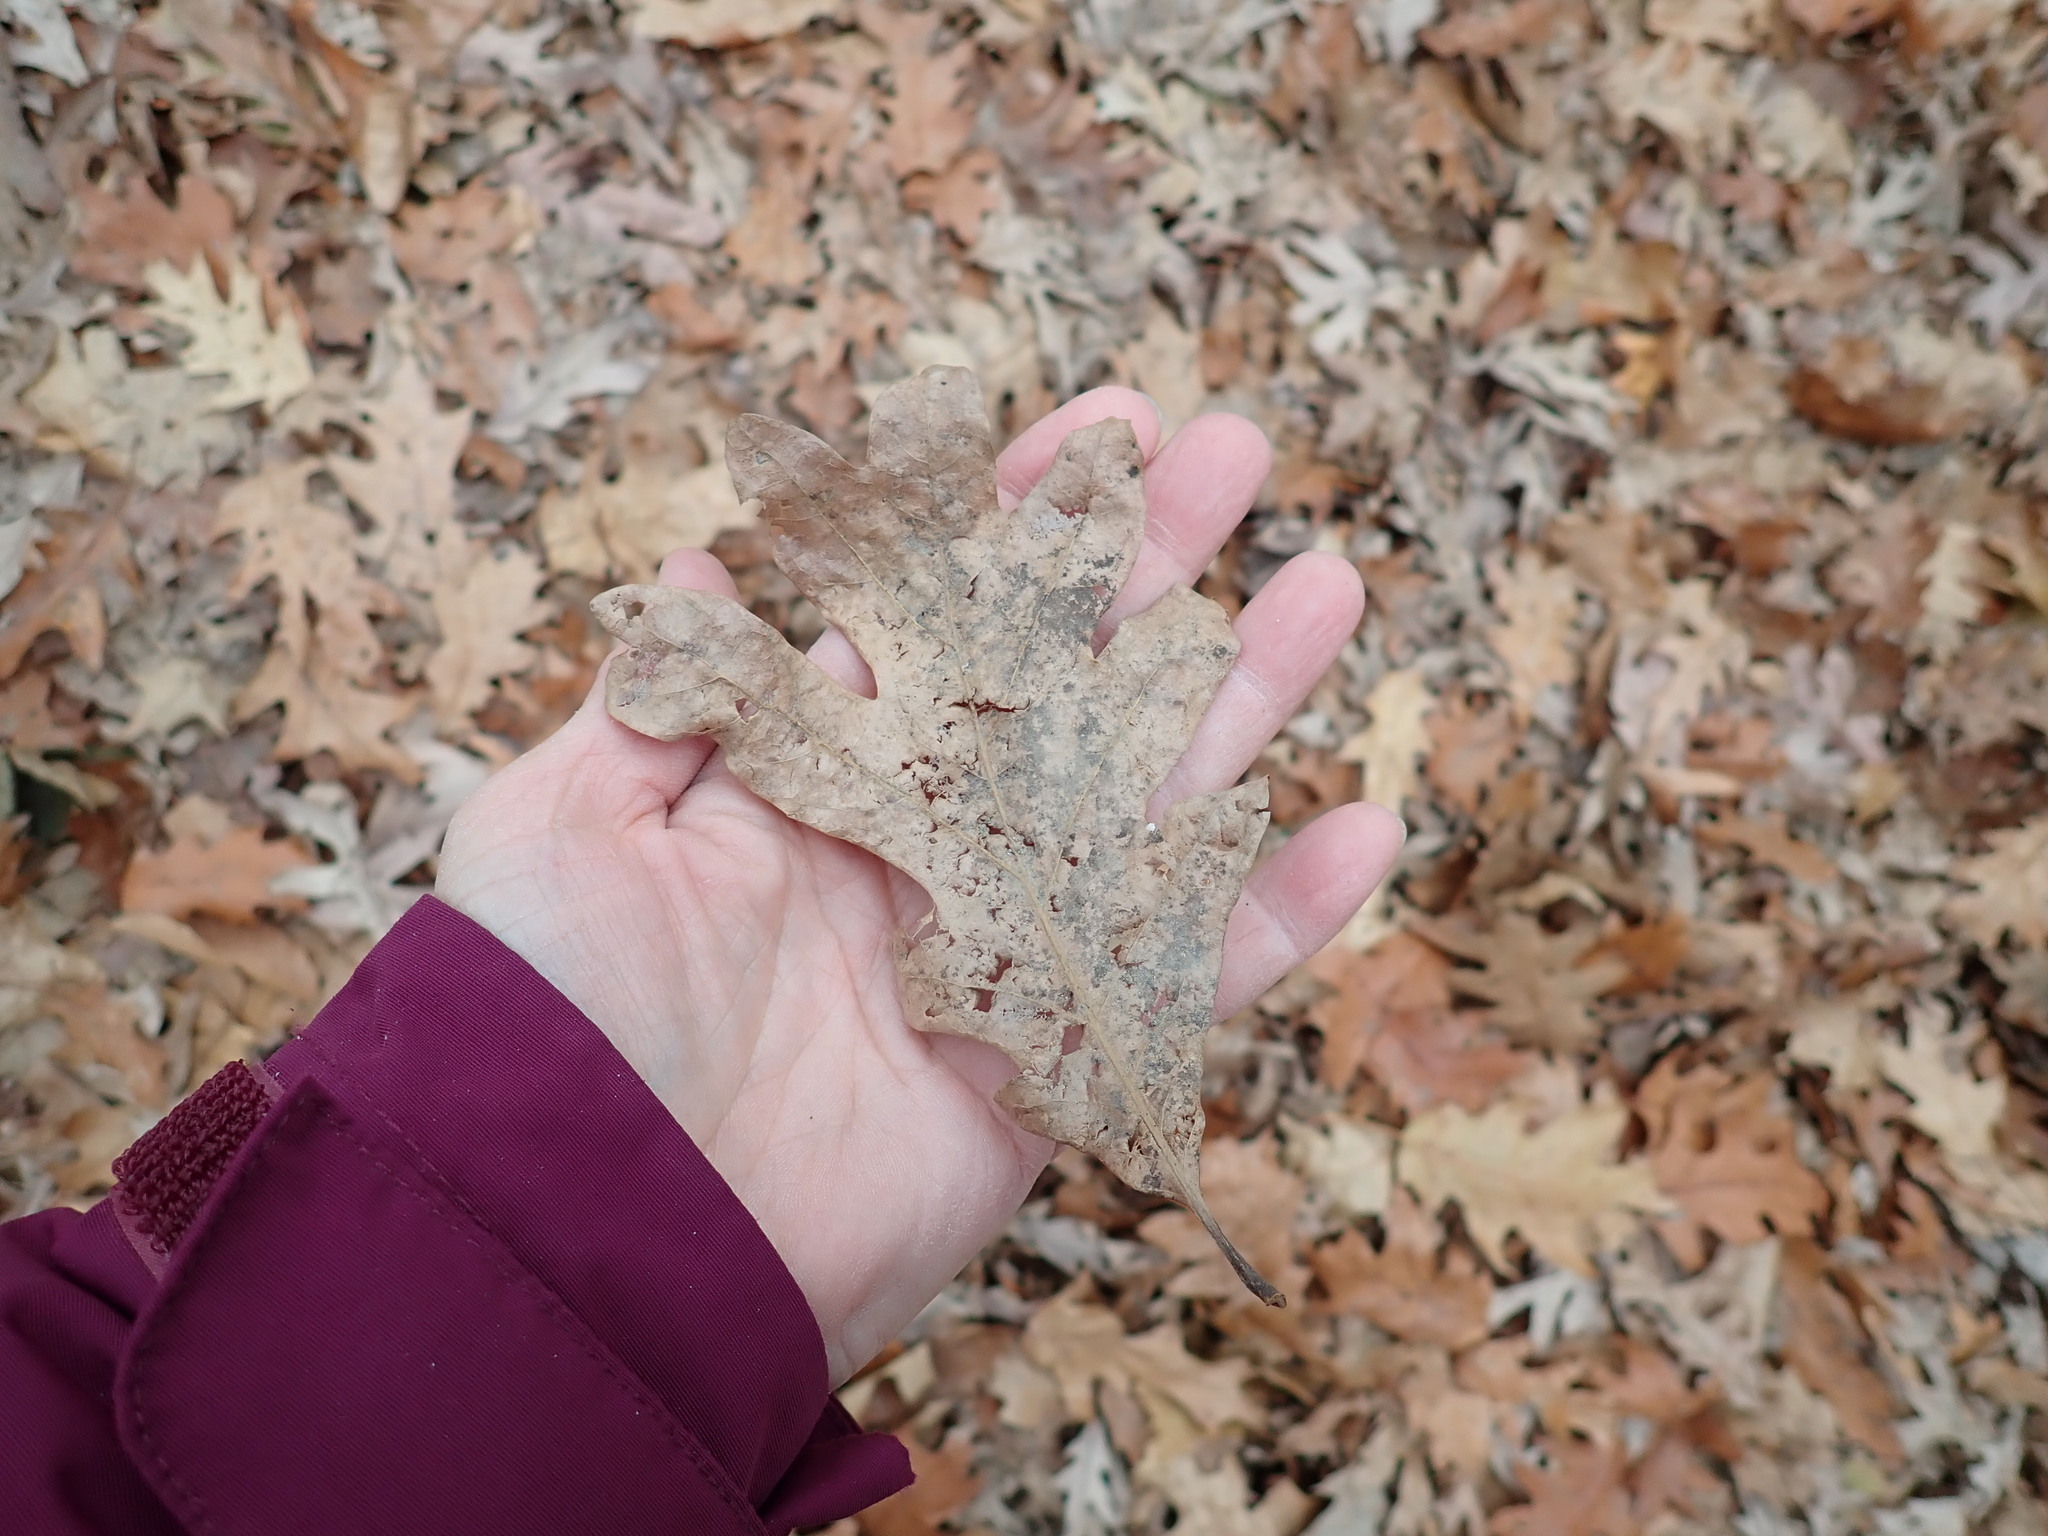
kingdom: Plantae
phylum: Tracheophyta
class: Magnoliopsida
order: Fagales
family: Fagaceae
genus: Quercus
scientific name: Quercus alba
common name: White oak
